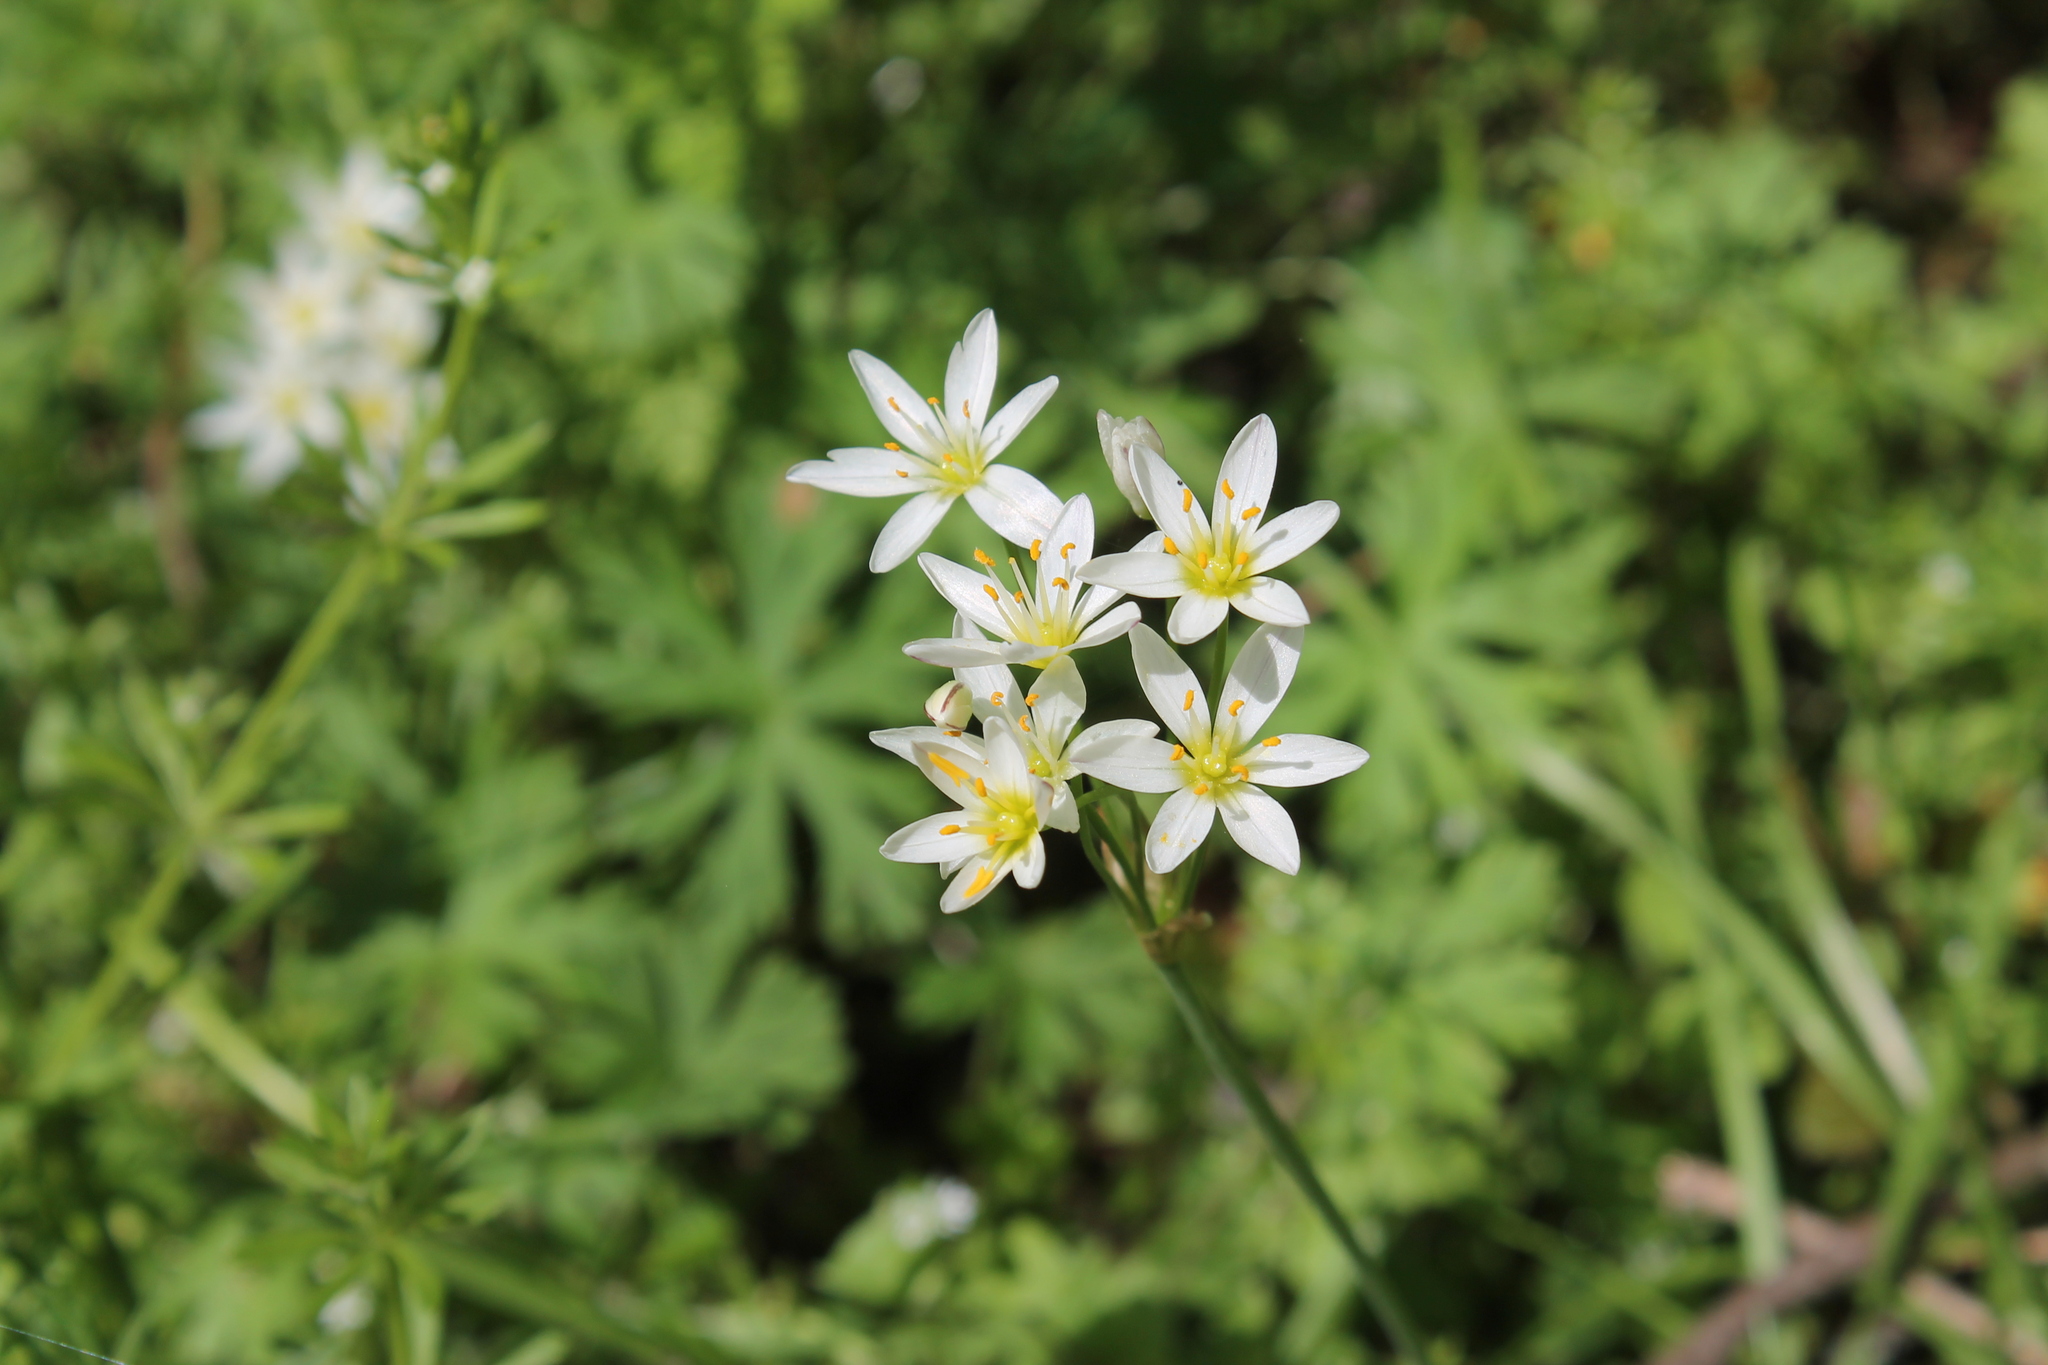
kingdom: Plantae
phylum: Tracheophyta
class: Liliopsida
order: Asparagales
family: Amaryllidaceae
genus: Nothoscordum
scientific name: Nothoscordum bivalve
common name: Crow-poison
